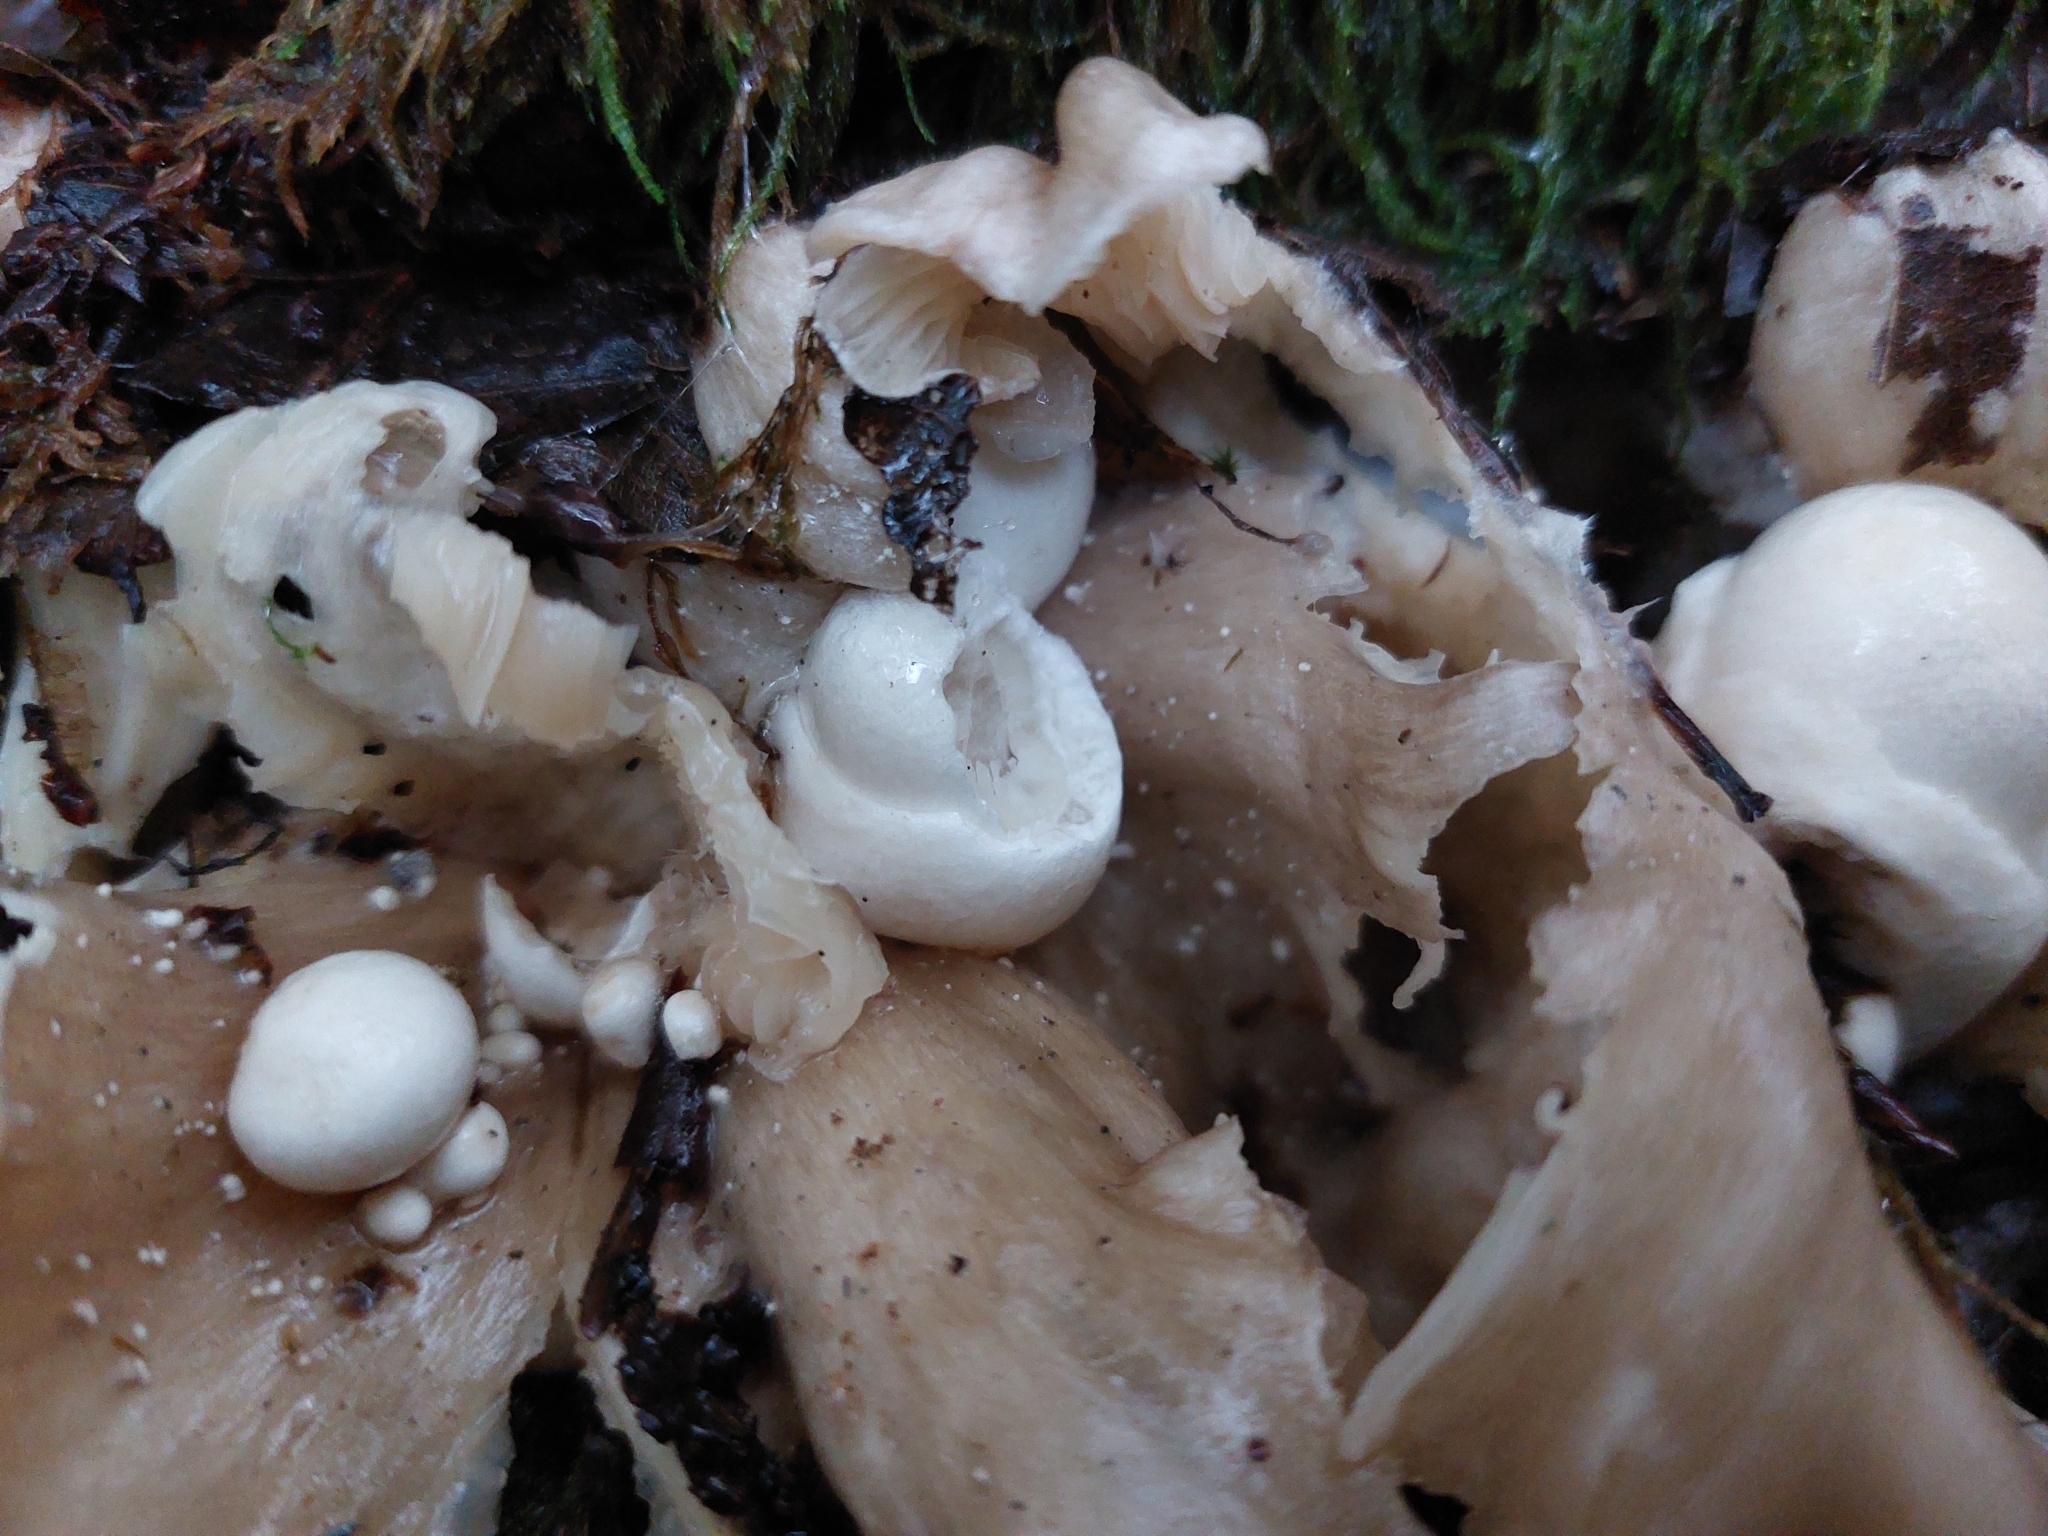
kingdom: Fungi
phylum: Basidiomycota
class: Agaricomycetes
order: Agaricales
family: Pluteaceae
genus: Volvariella
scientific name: Volvariella surrecta
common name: Piggyback rosegill
